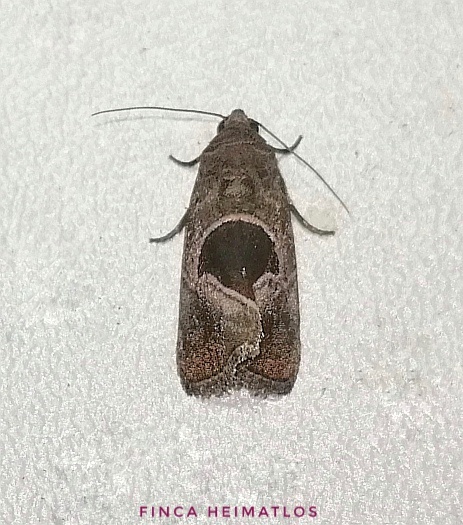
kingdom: Animalia
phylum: Arthropoda
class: Insecta
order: Lepidoptera
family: Noctuidae
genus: Elaphria
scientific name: Elaphria deltoides
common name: Cutworm moth
